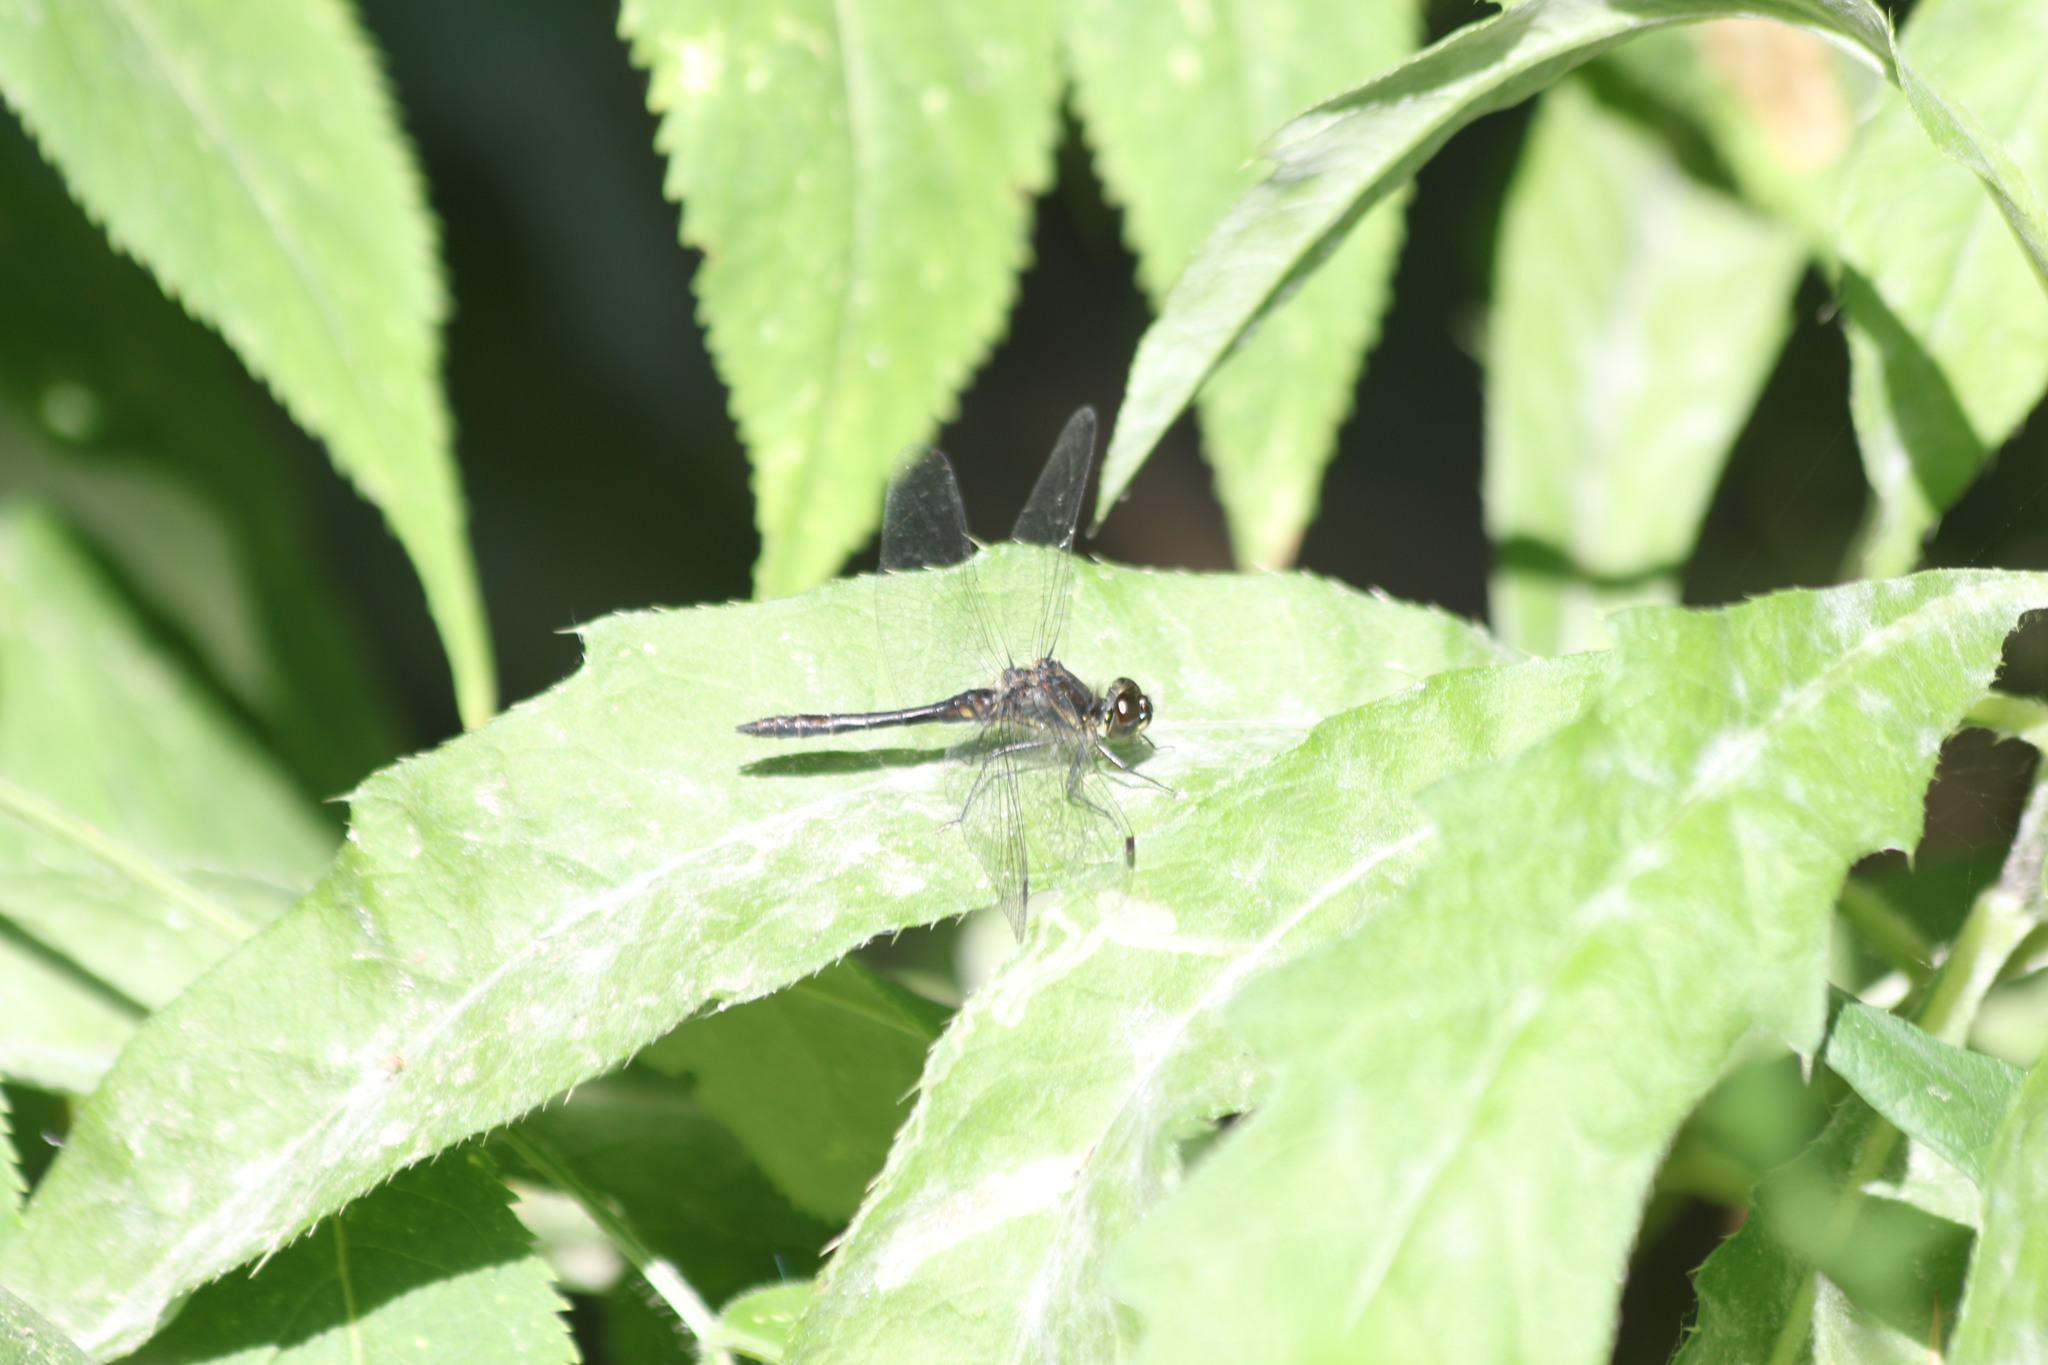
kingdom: Animalia
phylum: Arthropoda
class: Insecta
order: Odonata
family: Libellulidae
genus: Sympetrum
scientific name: Sympetrum danae
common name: Black darter
